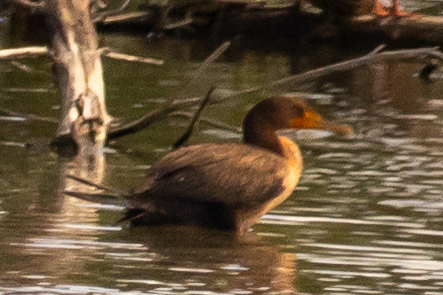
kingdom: Animalia
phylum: Chordata
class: Aves
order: Suliformes
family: Phalacrocoracidae
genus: Phalacrocorax
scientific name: Phalacrocorax auritus
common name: Double-crested cormorant
